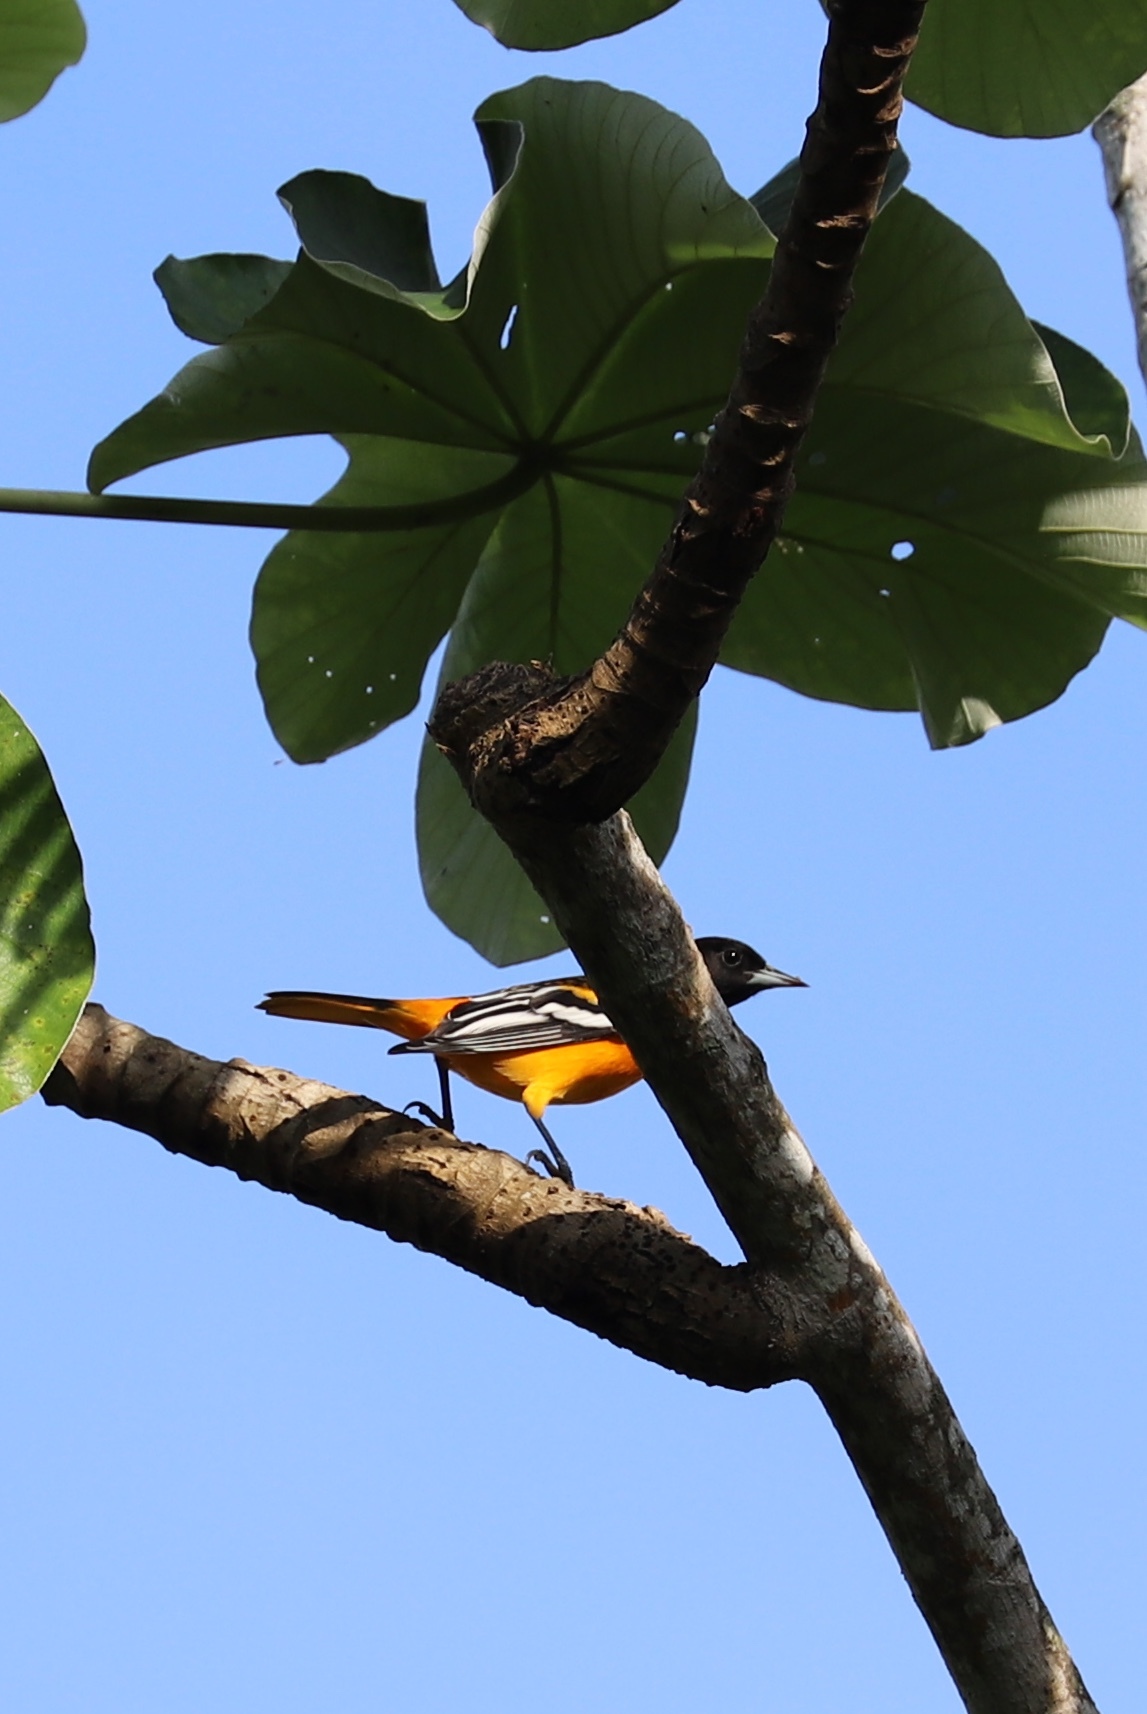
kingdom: Animalia
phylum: Chordata
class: Aves
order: Passeriformes
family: Icteridae
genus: Icterus
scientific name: Icterus galbula
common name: Baltimore oriole
